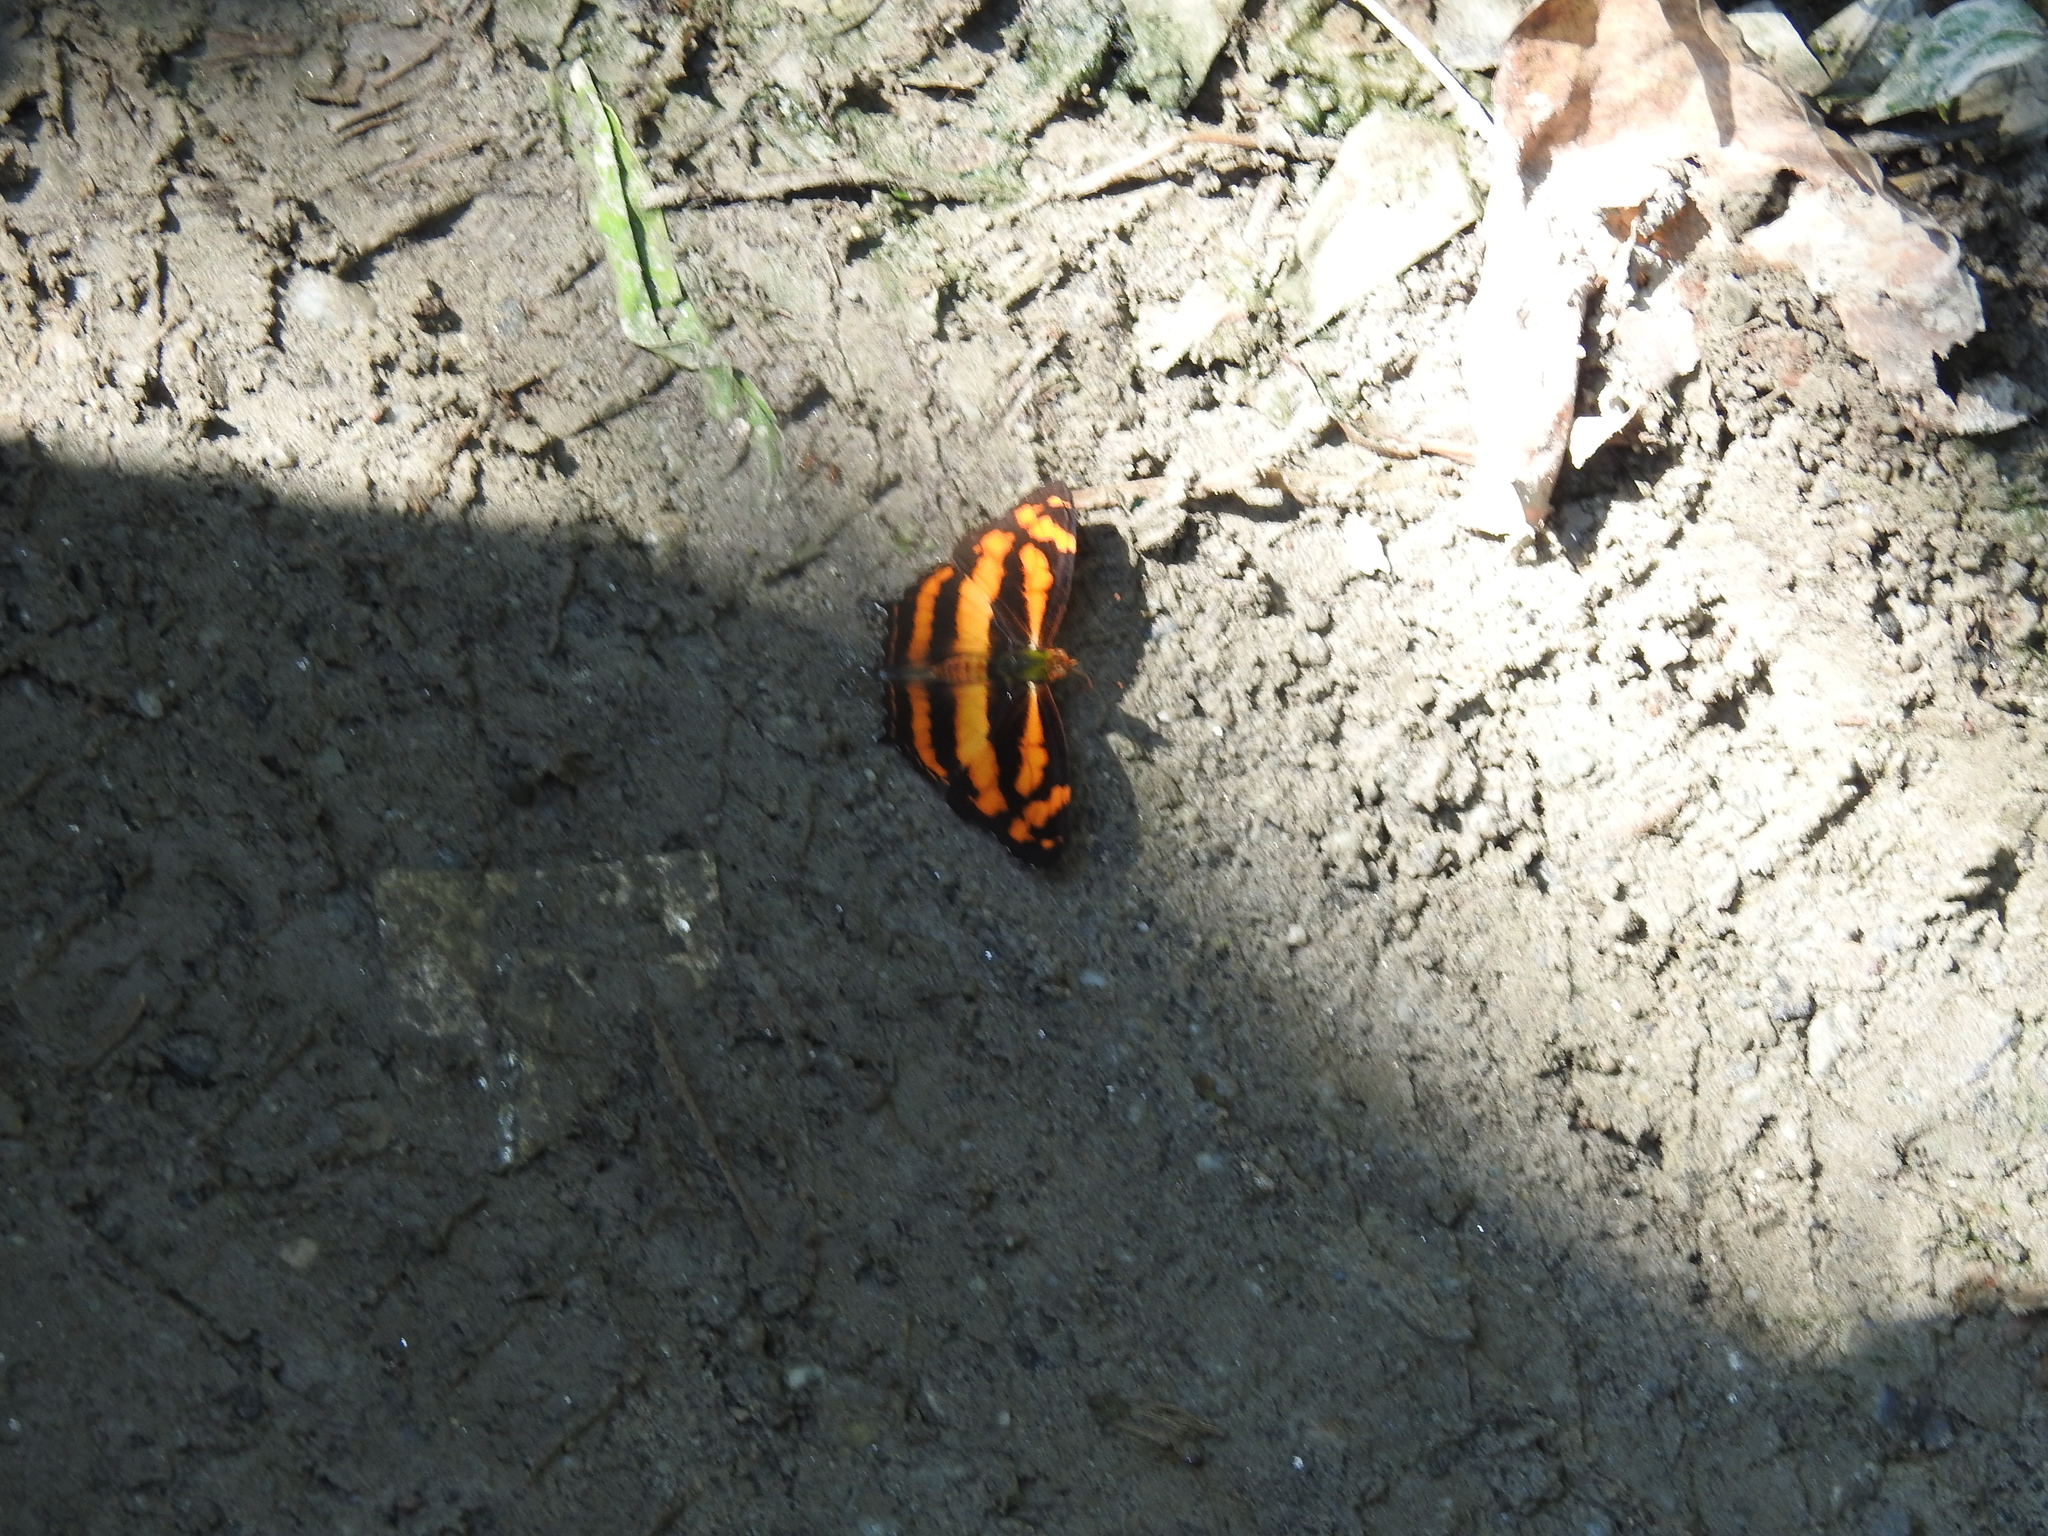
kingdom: Animalia
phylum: Arthropoda
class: Insecta
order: Lepidoptera
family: Nymphalidae
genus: Symbrenthia
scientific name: Symbrenthia hypselis
